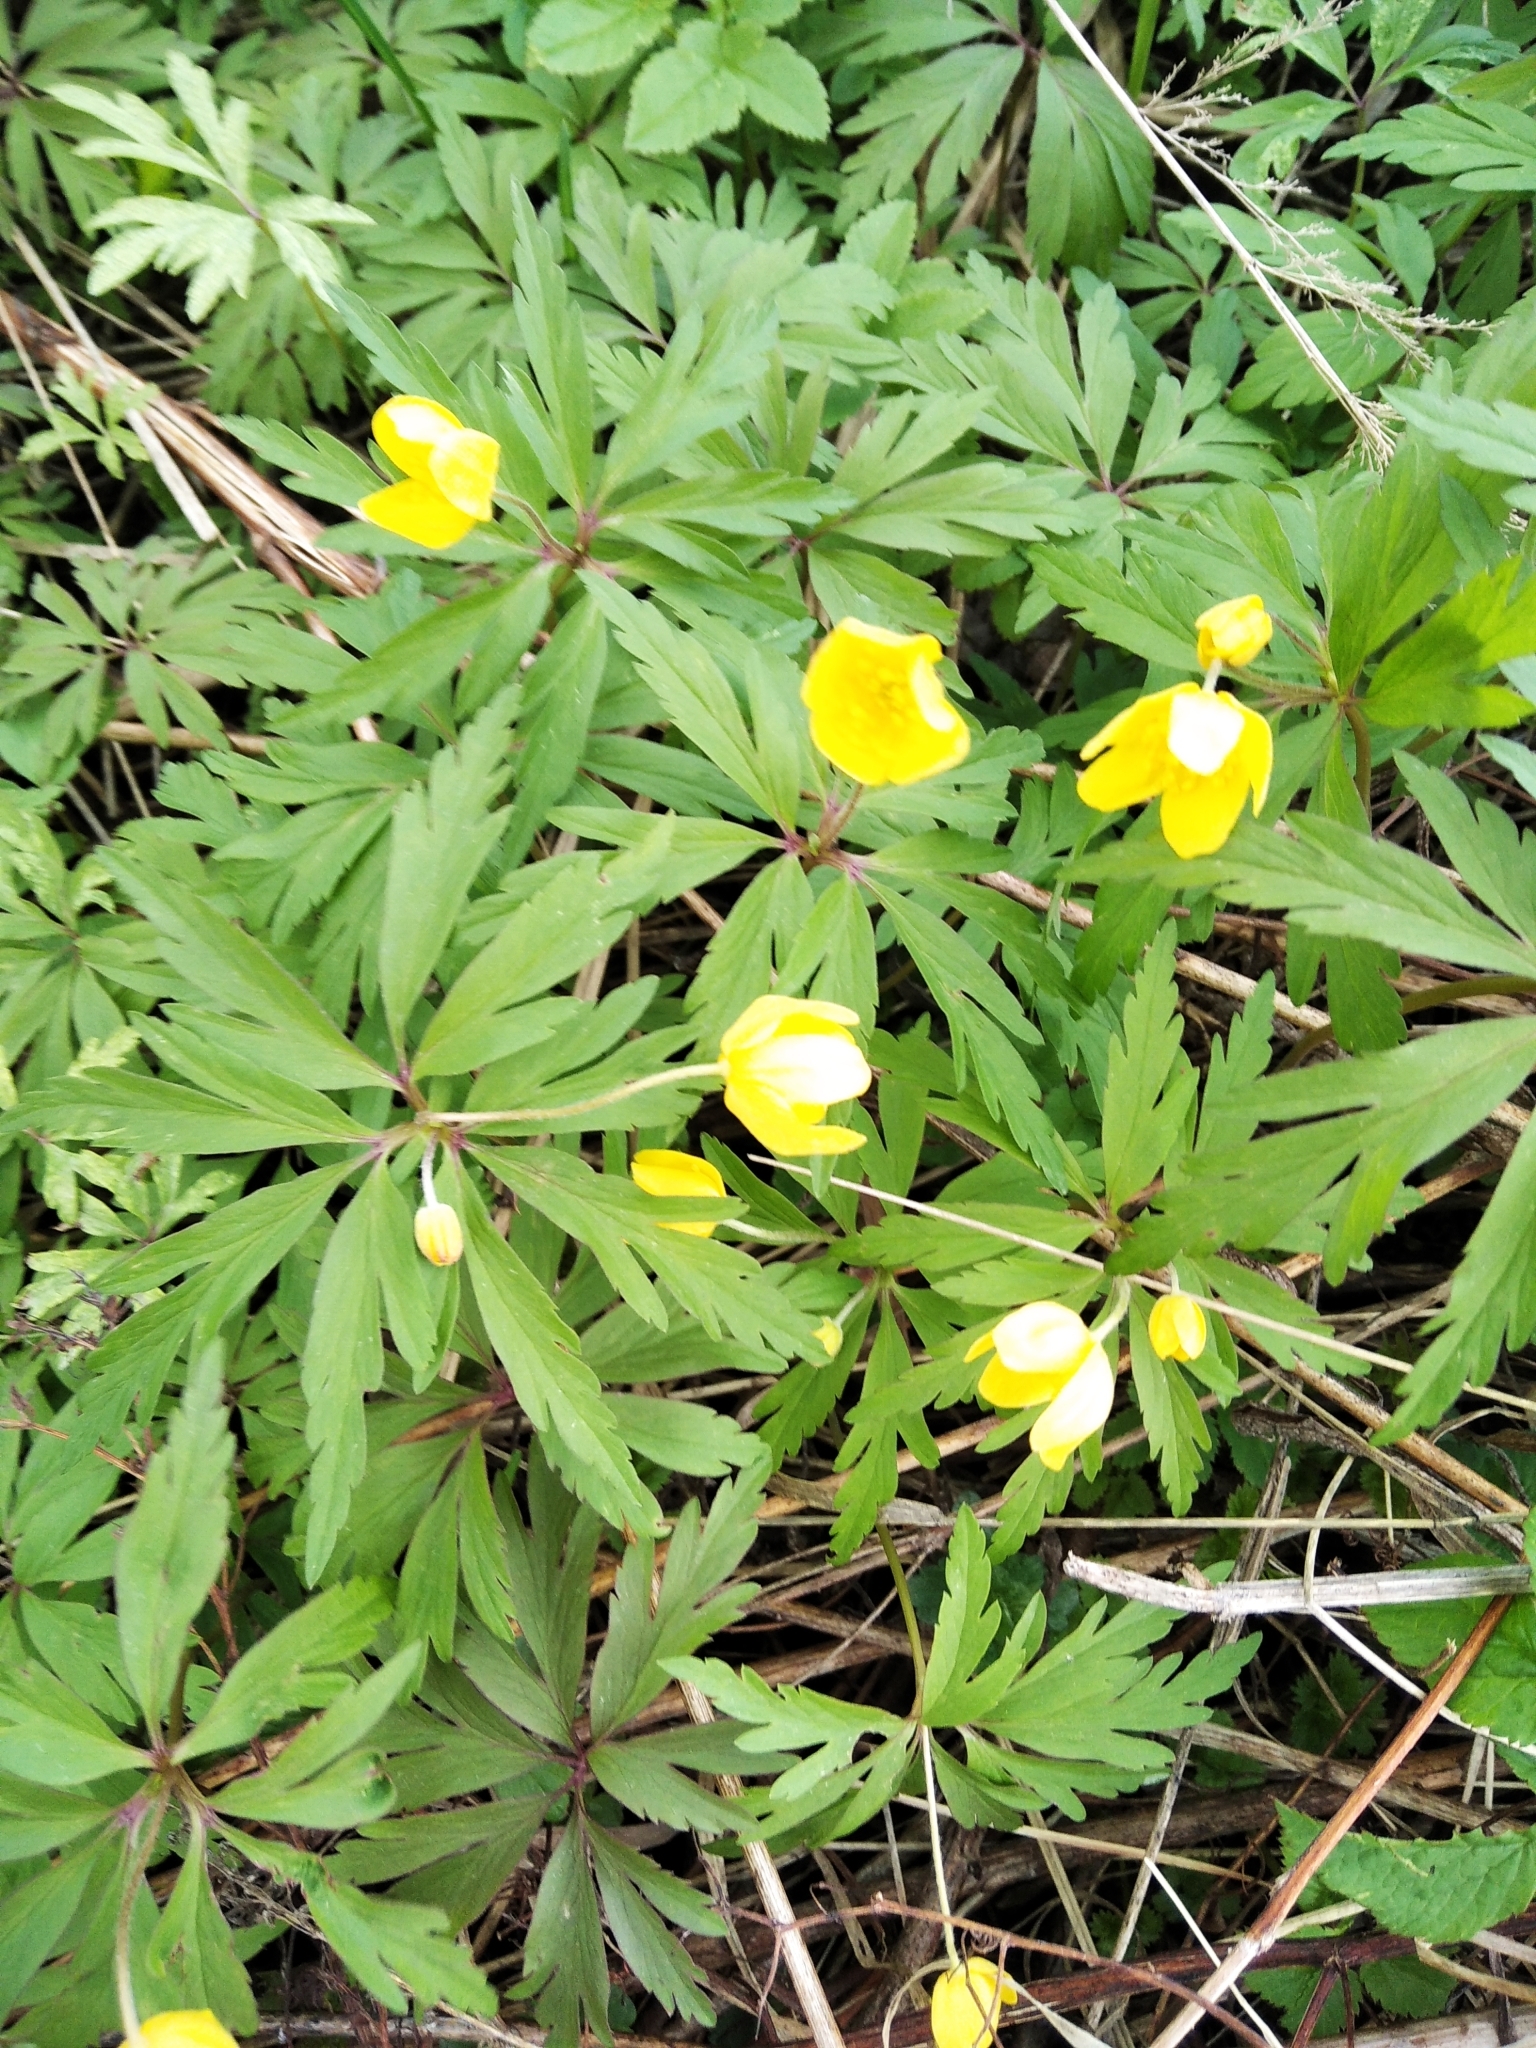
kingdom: Plantae
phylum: Tracheophyta
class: Magnoliopsida
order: Ranunculales
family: Ranunculaceae
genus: Anemone
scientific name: Anemone ranunculoides
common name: Yellow anemone
